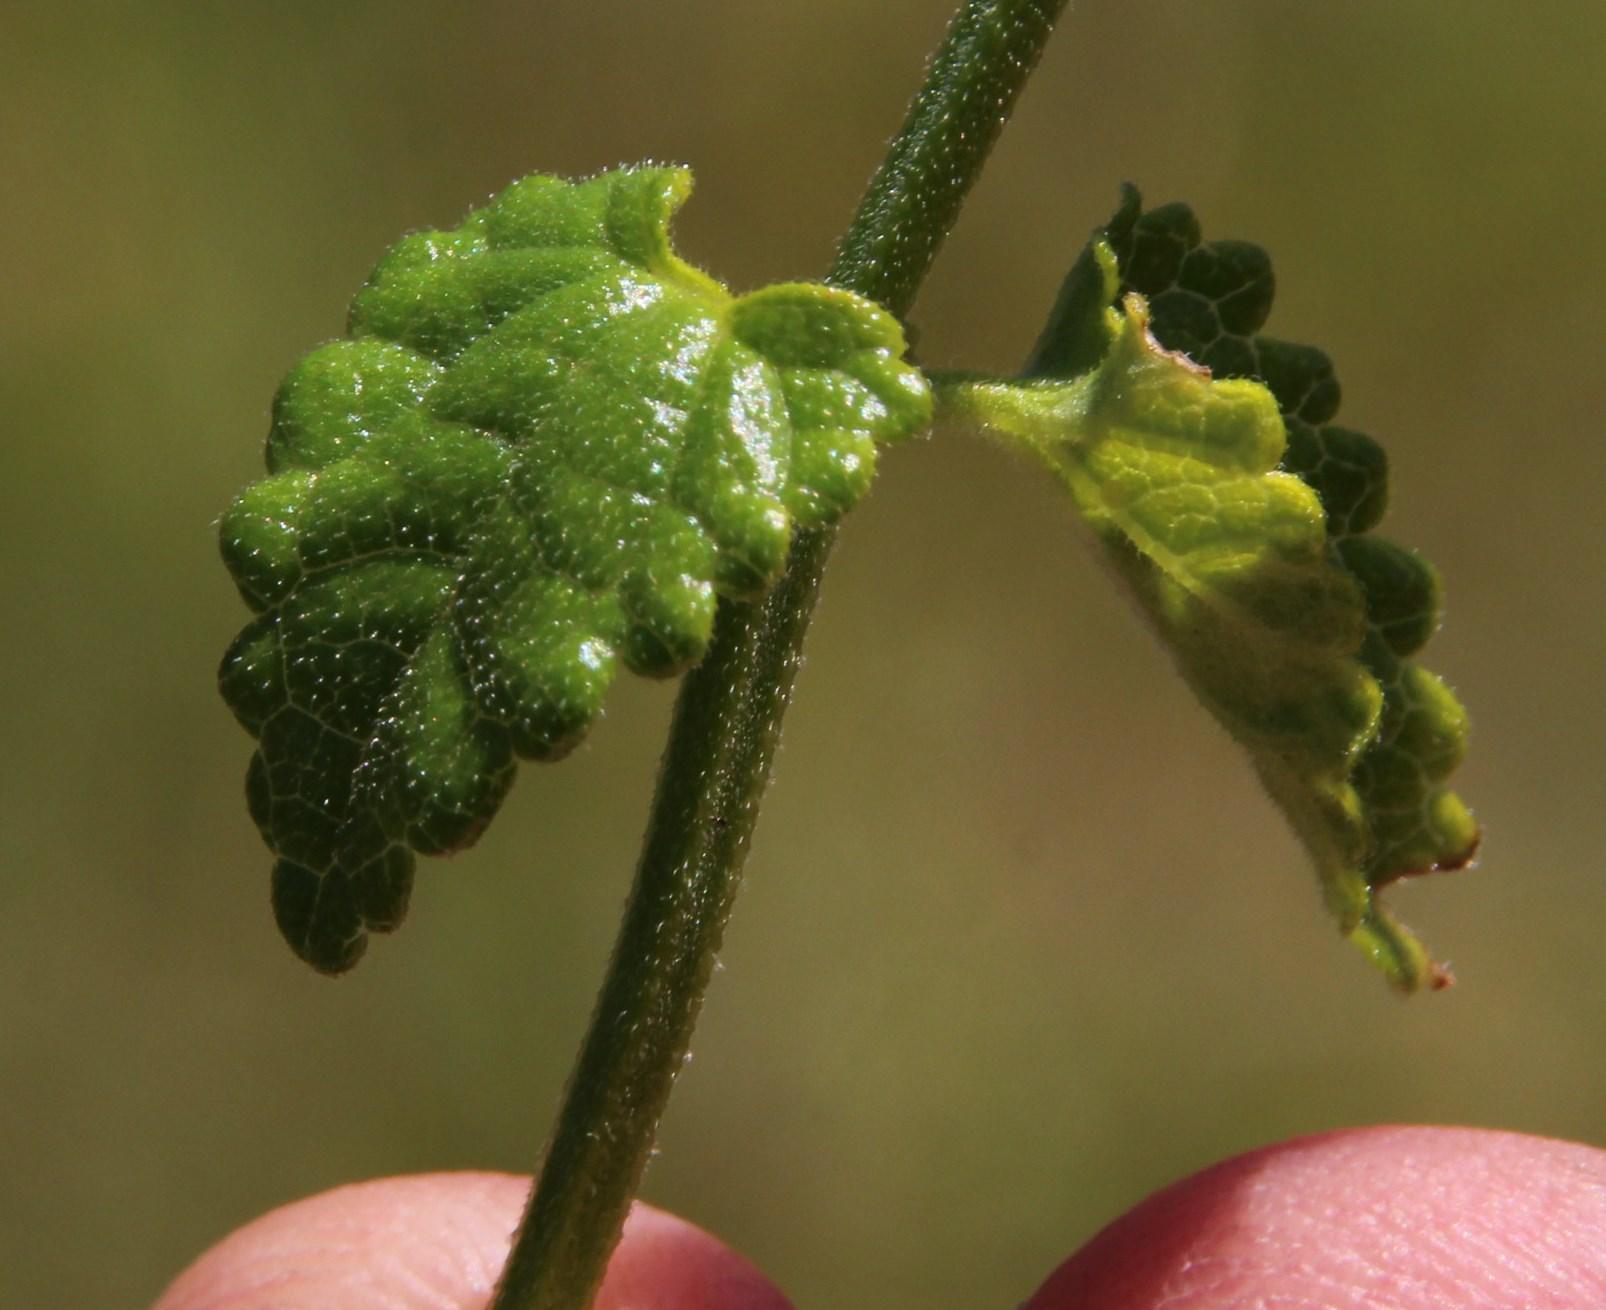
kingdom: Plantae
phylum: Tracheophyta
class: Magnoliopsida
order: Lamiales
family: Lamiaceae
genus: Stachys
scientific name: Stachys aethiopica
